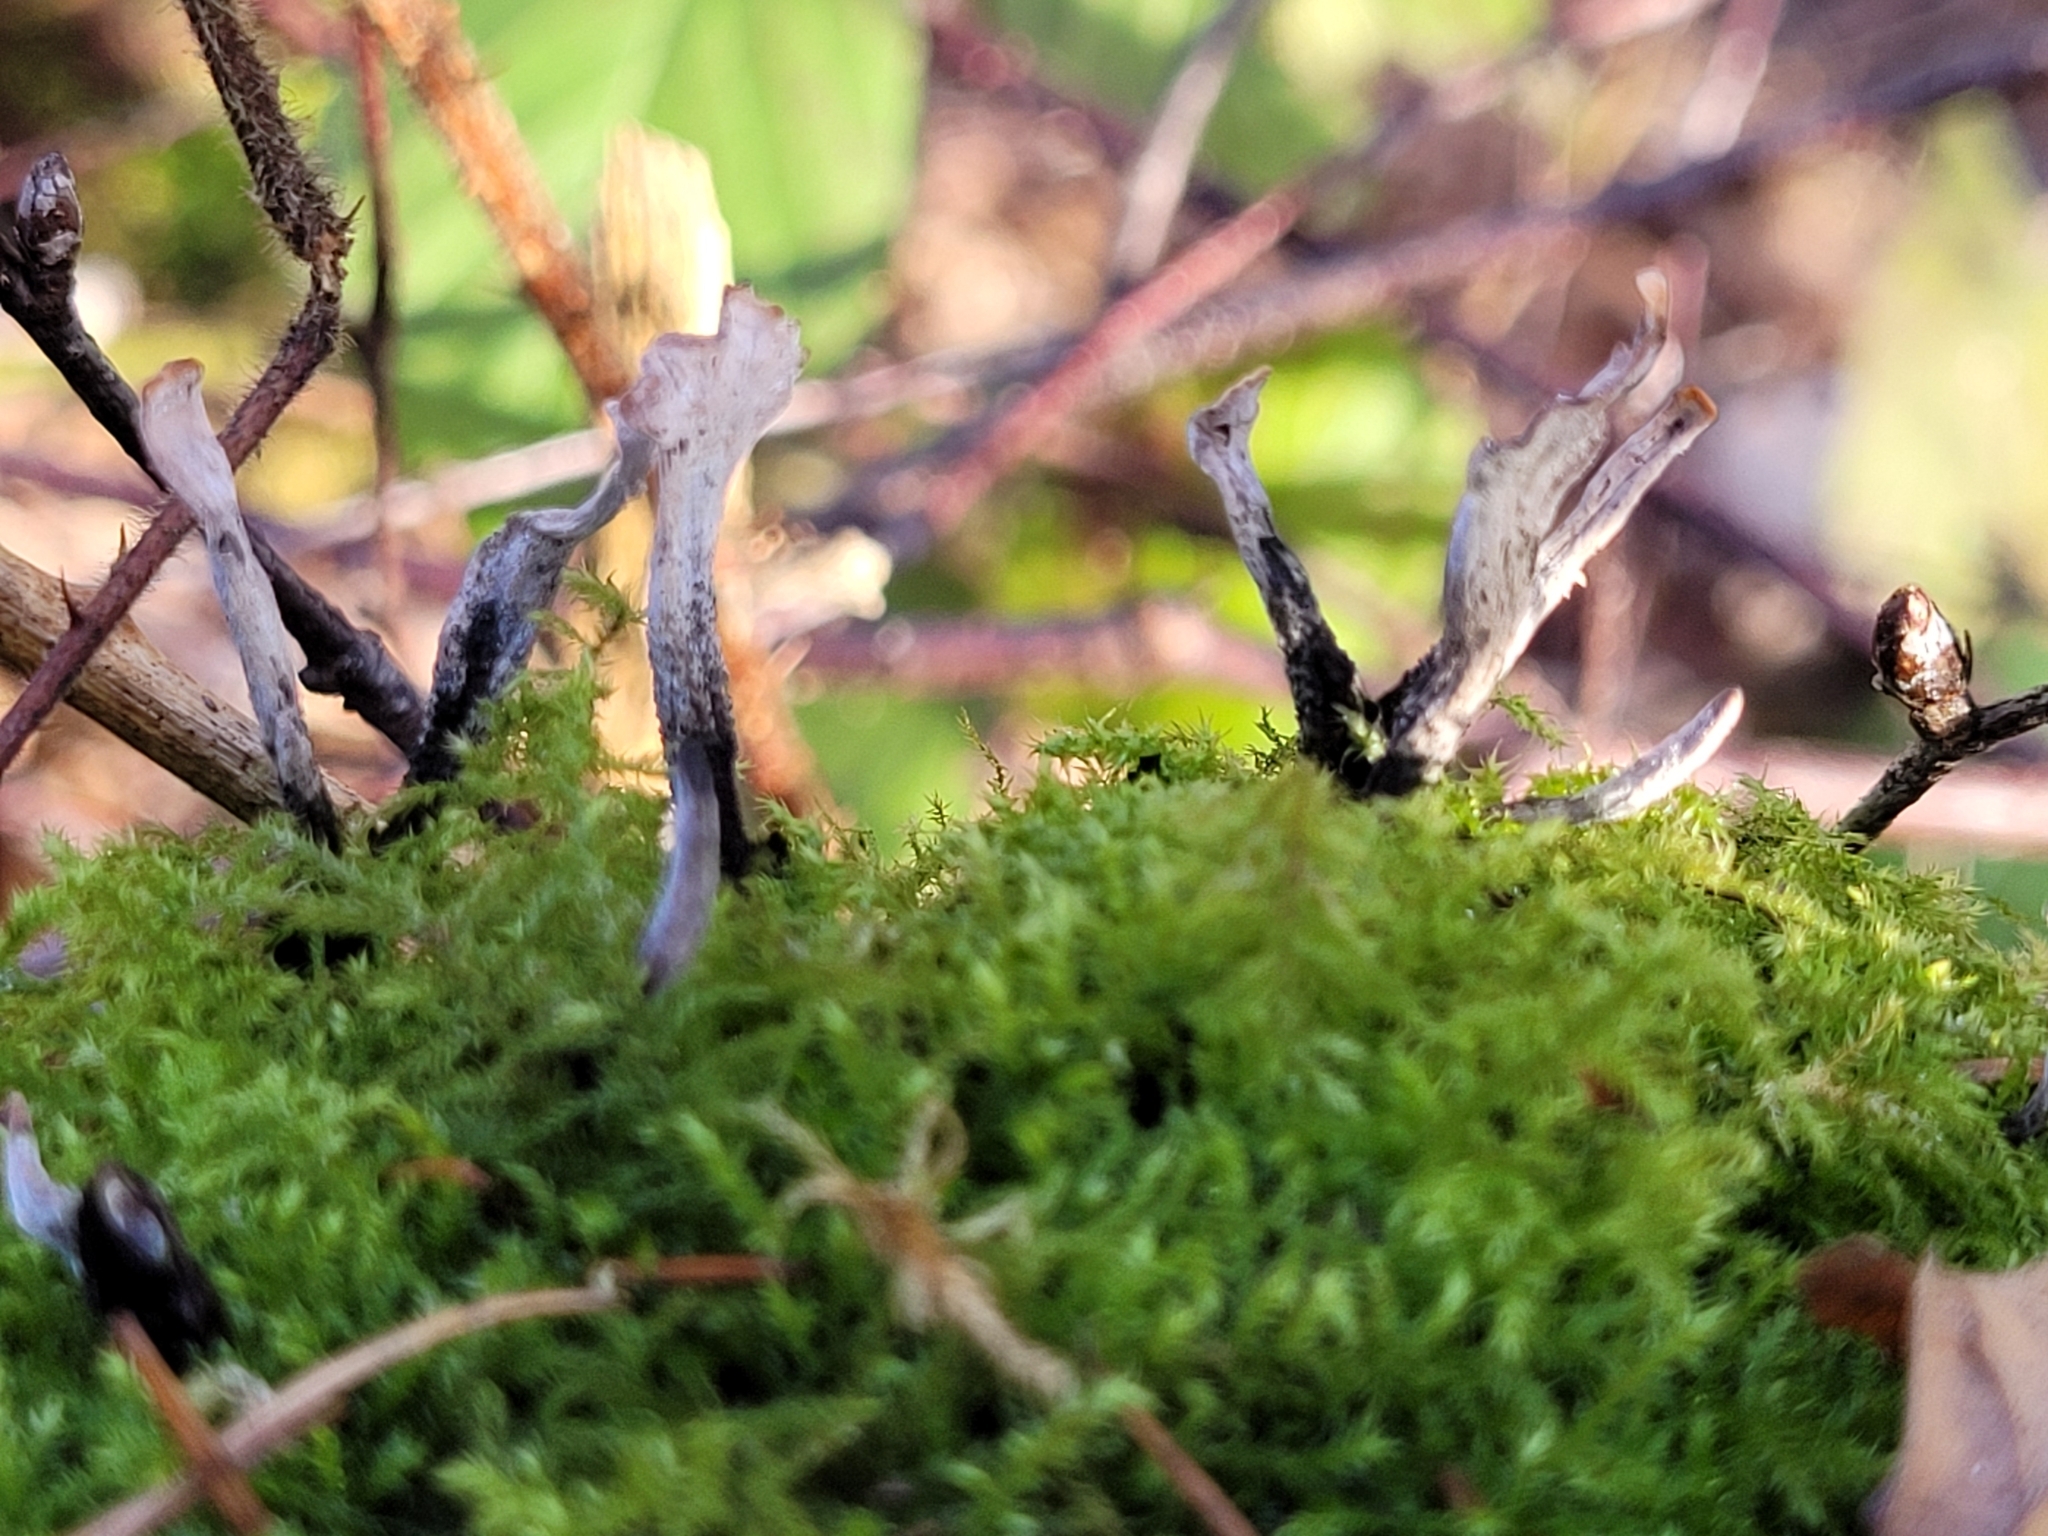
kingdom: Fungi
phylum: Ascomycota
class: Sordariomycetes
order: Xylariales
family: Xylariaceae
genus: Xylaria
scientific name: Xylaria hypoxylon
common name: Candle-snuff fungus
